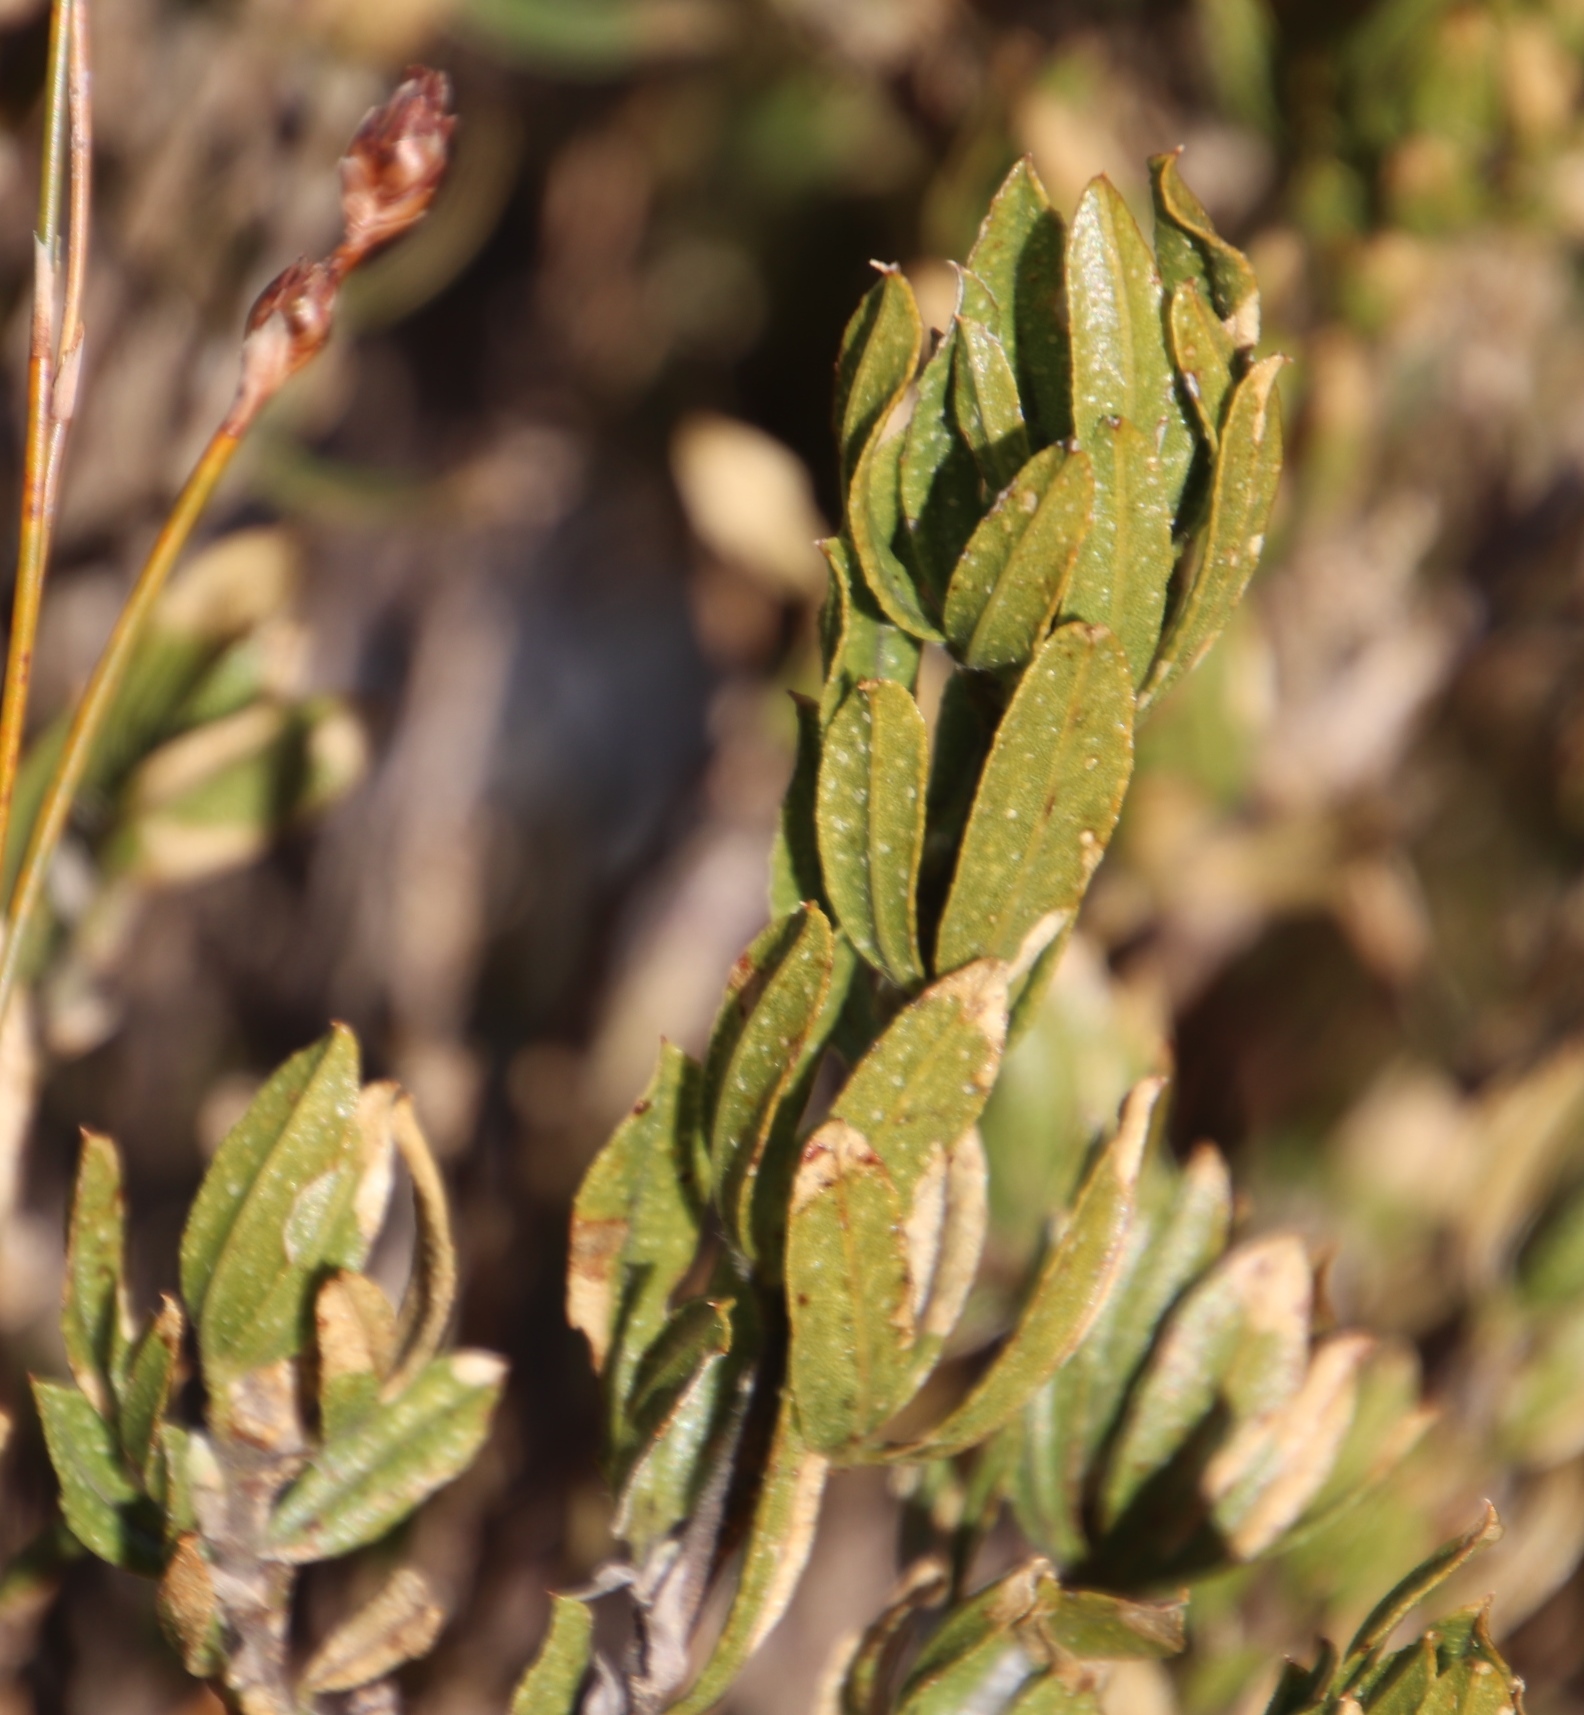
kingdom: Plantae
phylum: Tracheophyta
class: Magnoliopsida
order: Fabales
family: Fabaceae
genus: Psoralea
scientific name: Psoralea mundiana
